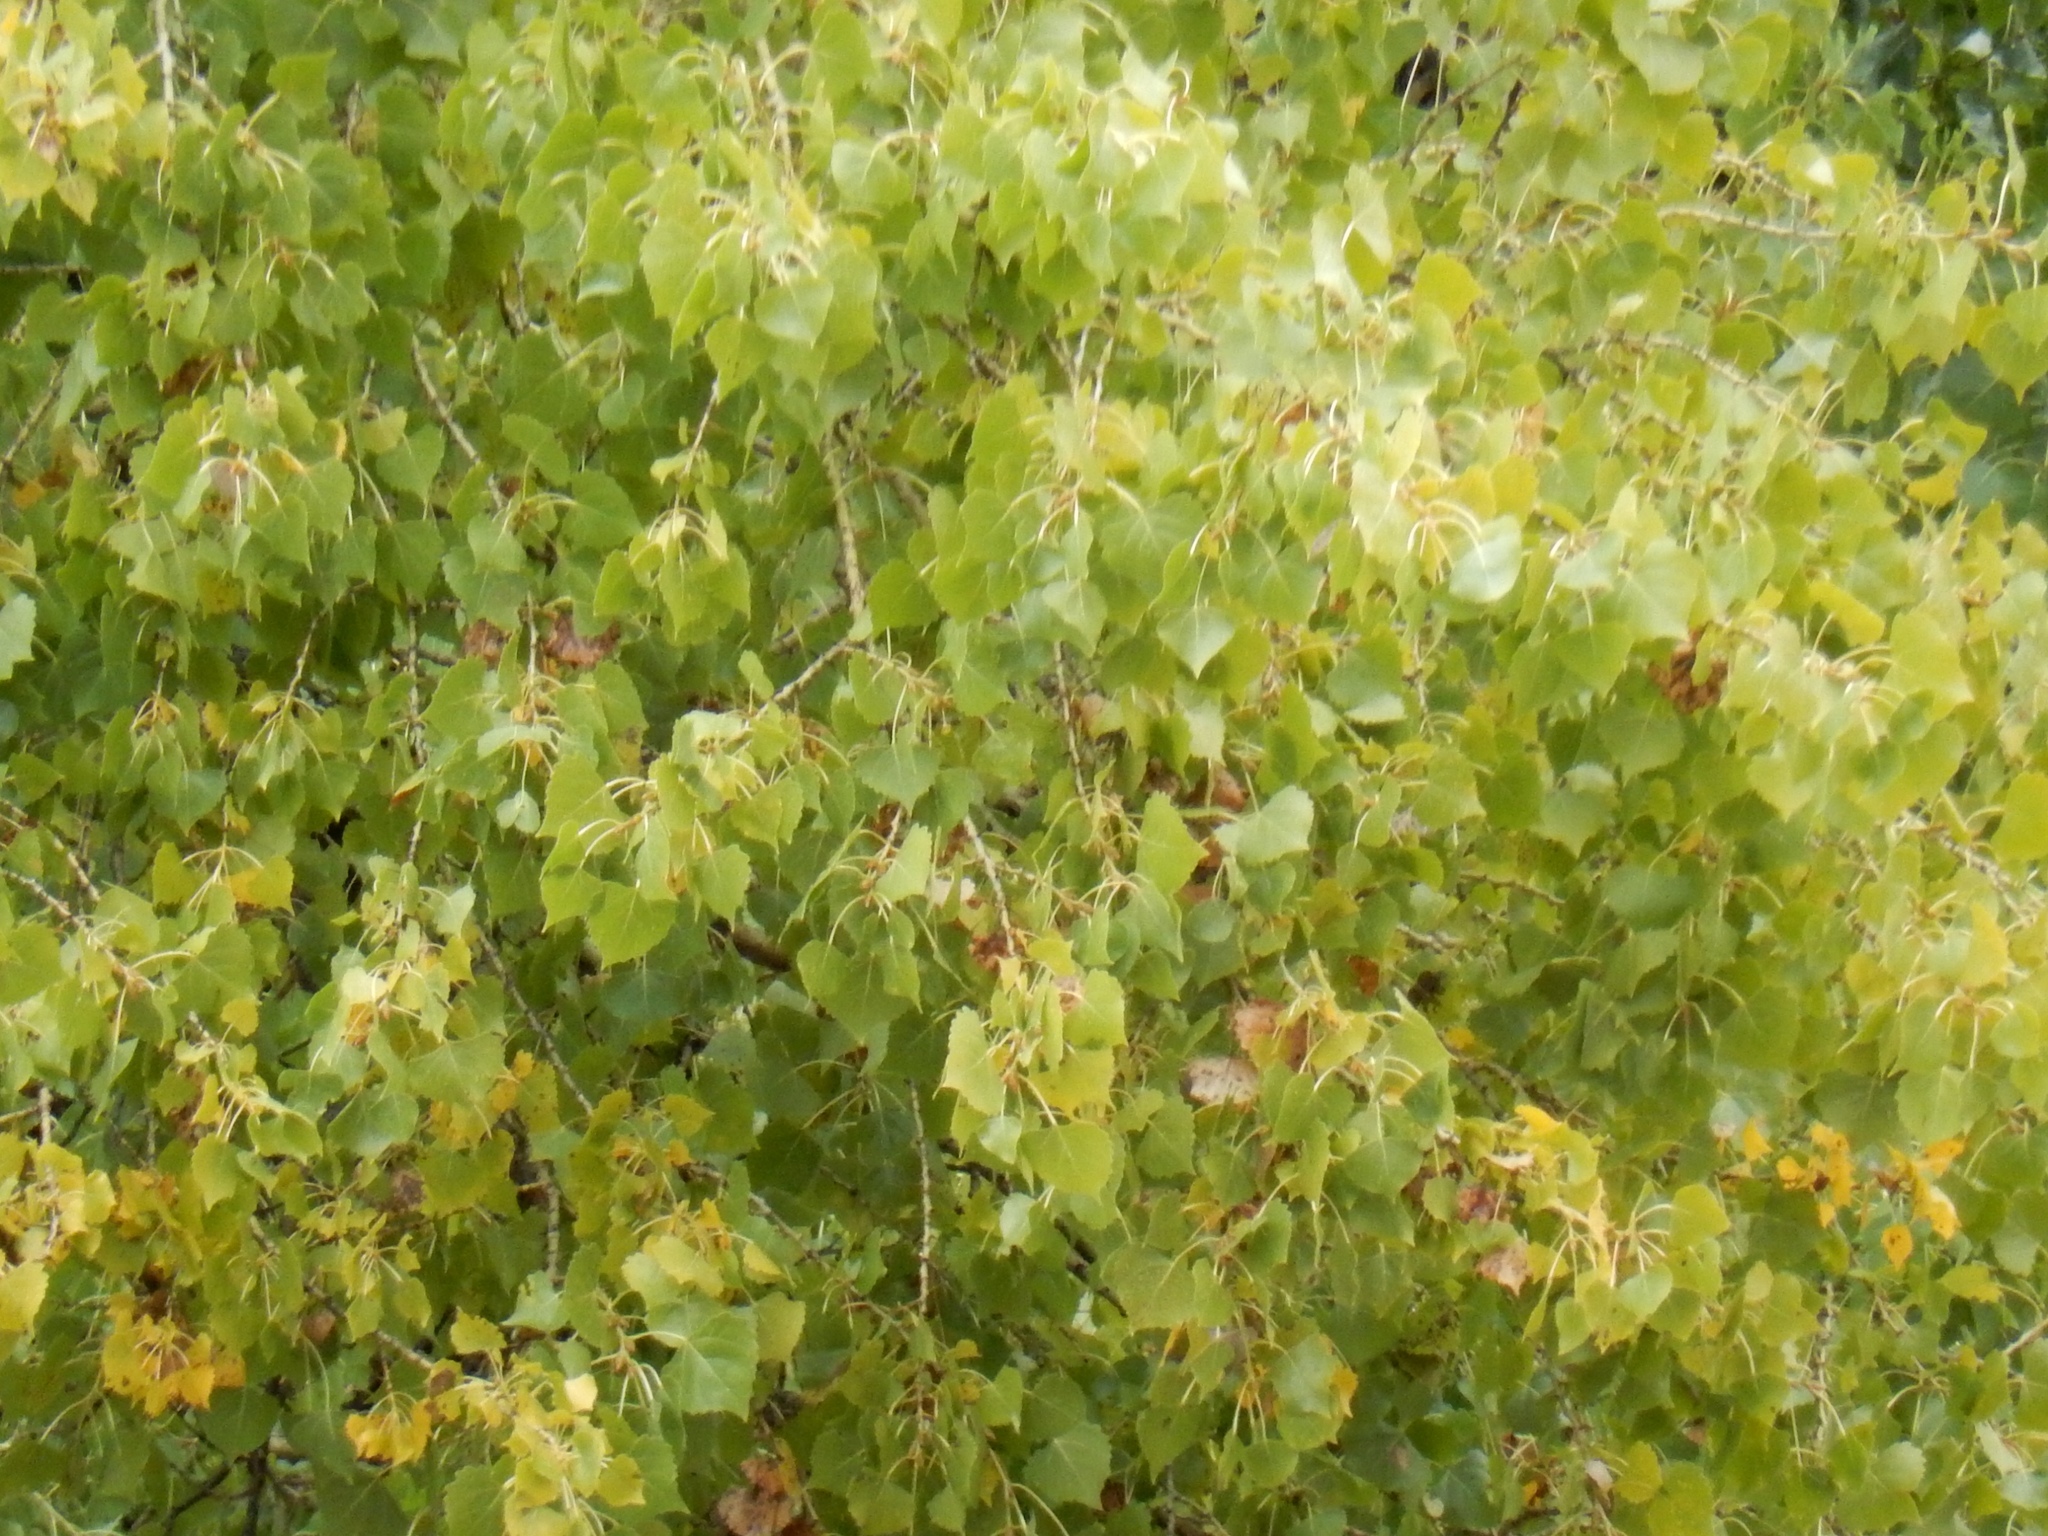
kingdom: Plantae
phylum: Tracheophyta
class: Magnoliopsida
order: Malpighiales
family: Salicaceae
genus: Populus
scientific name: Populus fremontii
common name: Fremont's cottonwood
